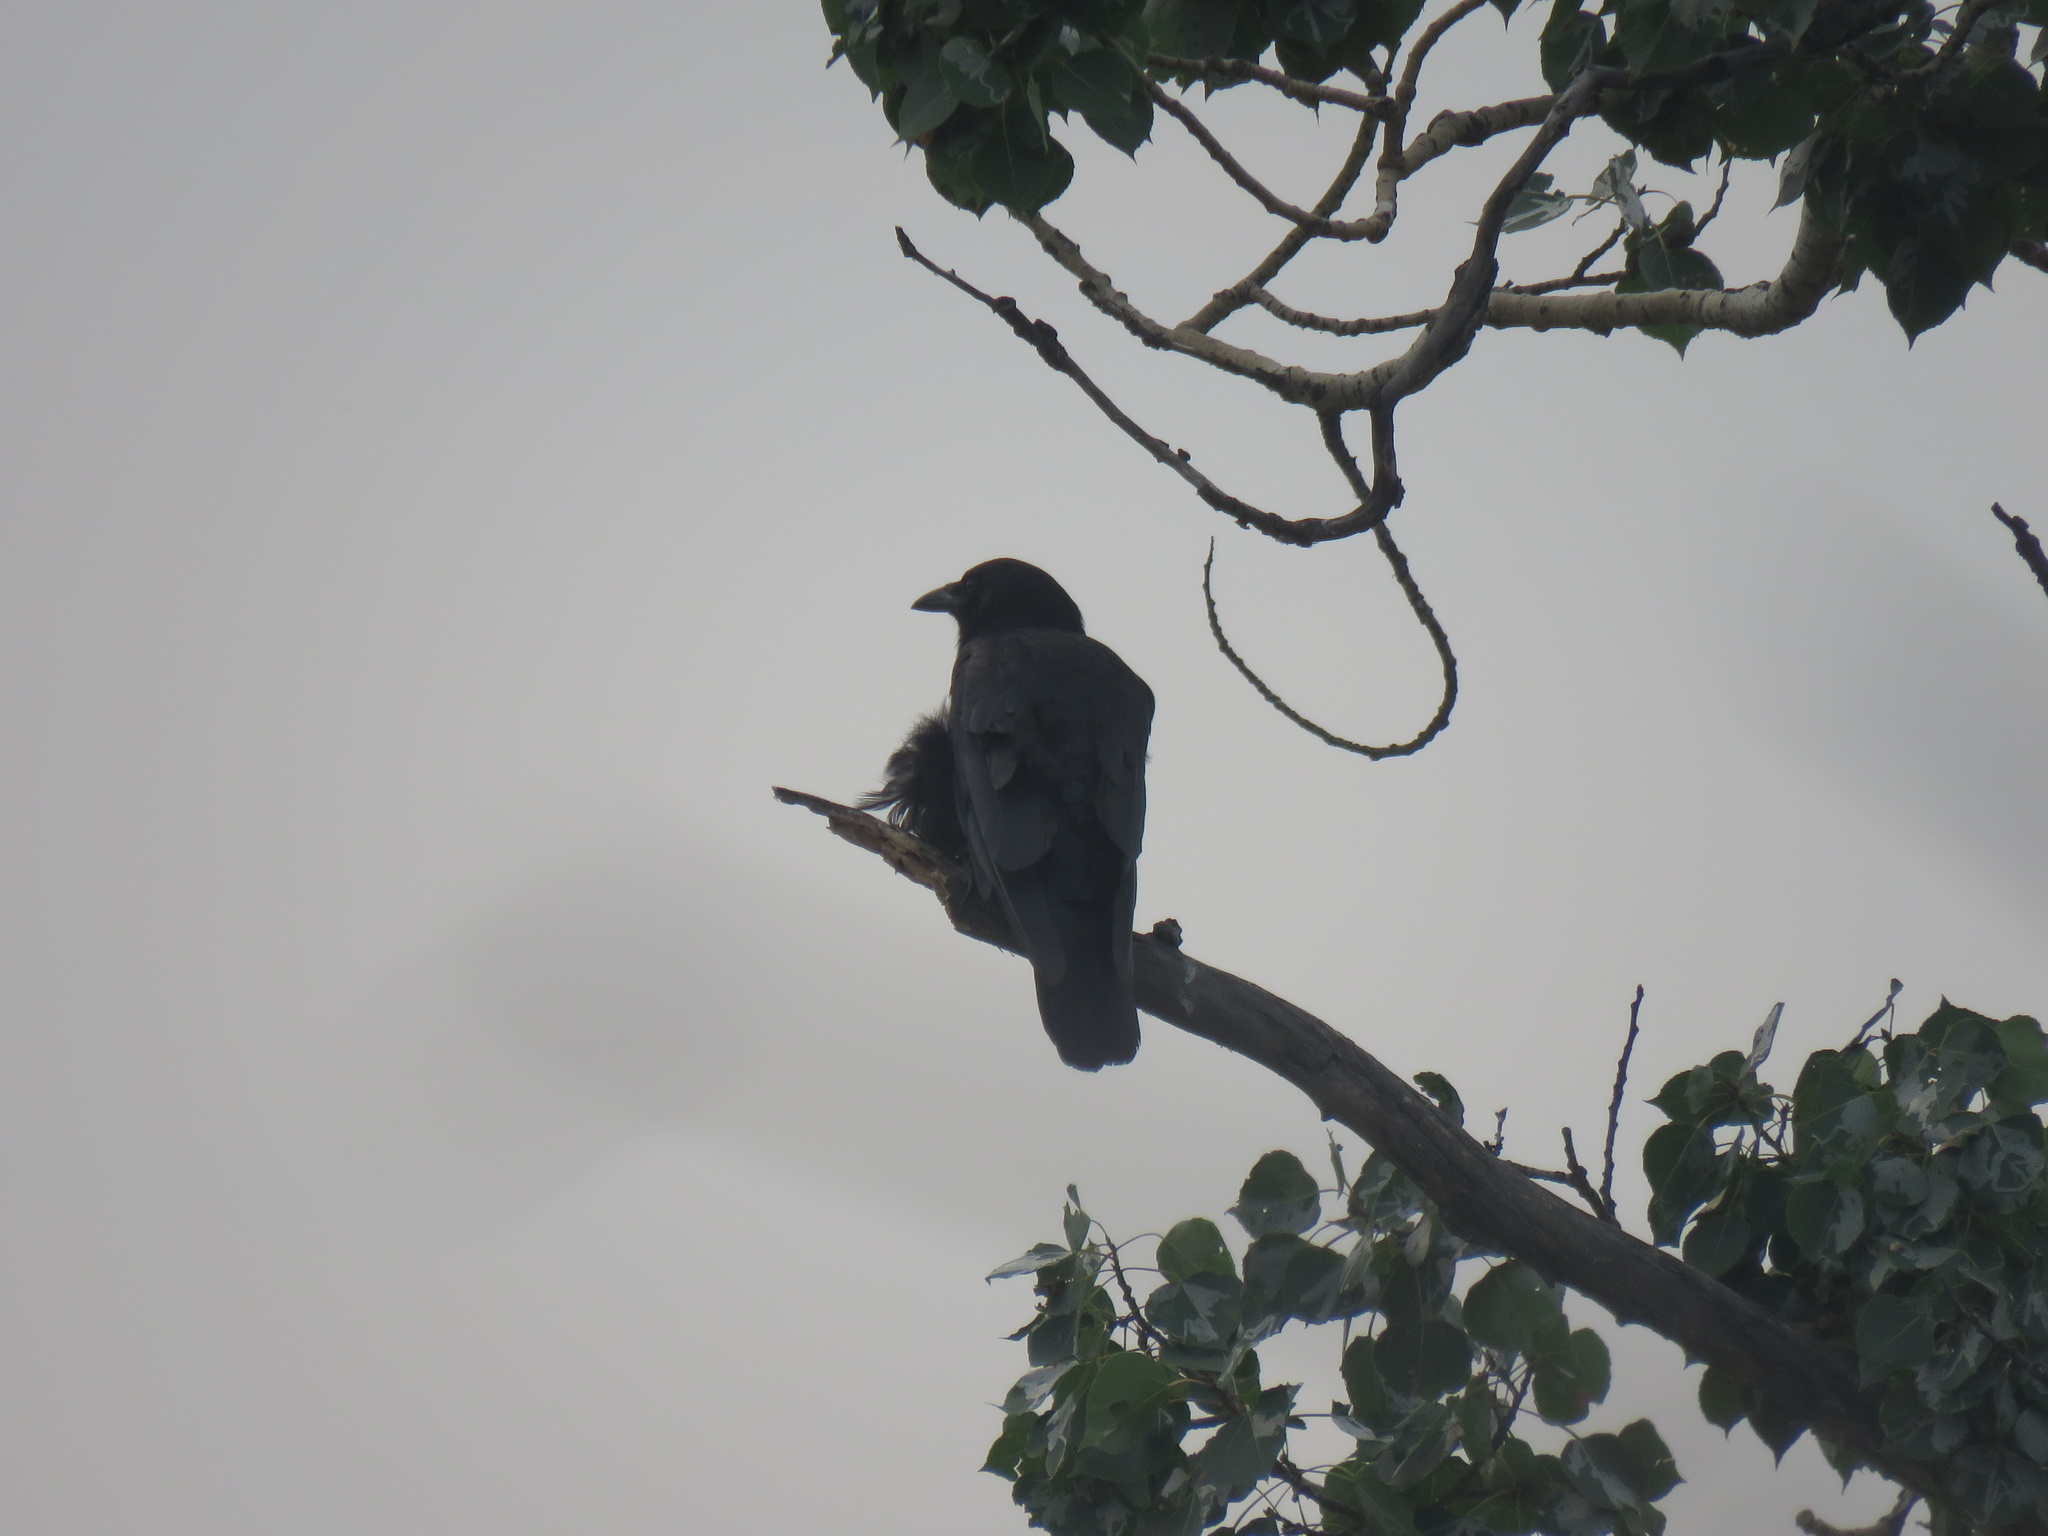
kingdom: Animalia
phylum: Chordata
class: Aves
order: Passeriformes
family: Corvidae
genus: Corvus
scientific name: Corvus brachyrhynchos
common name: American crow
